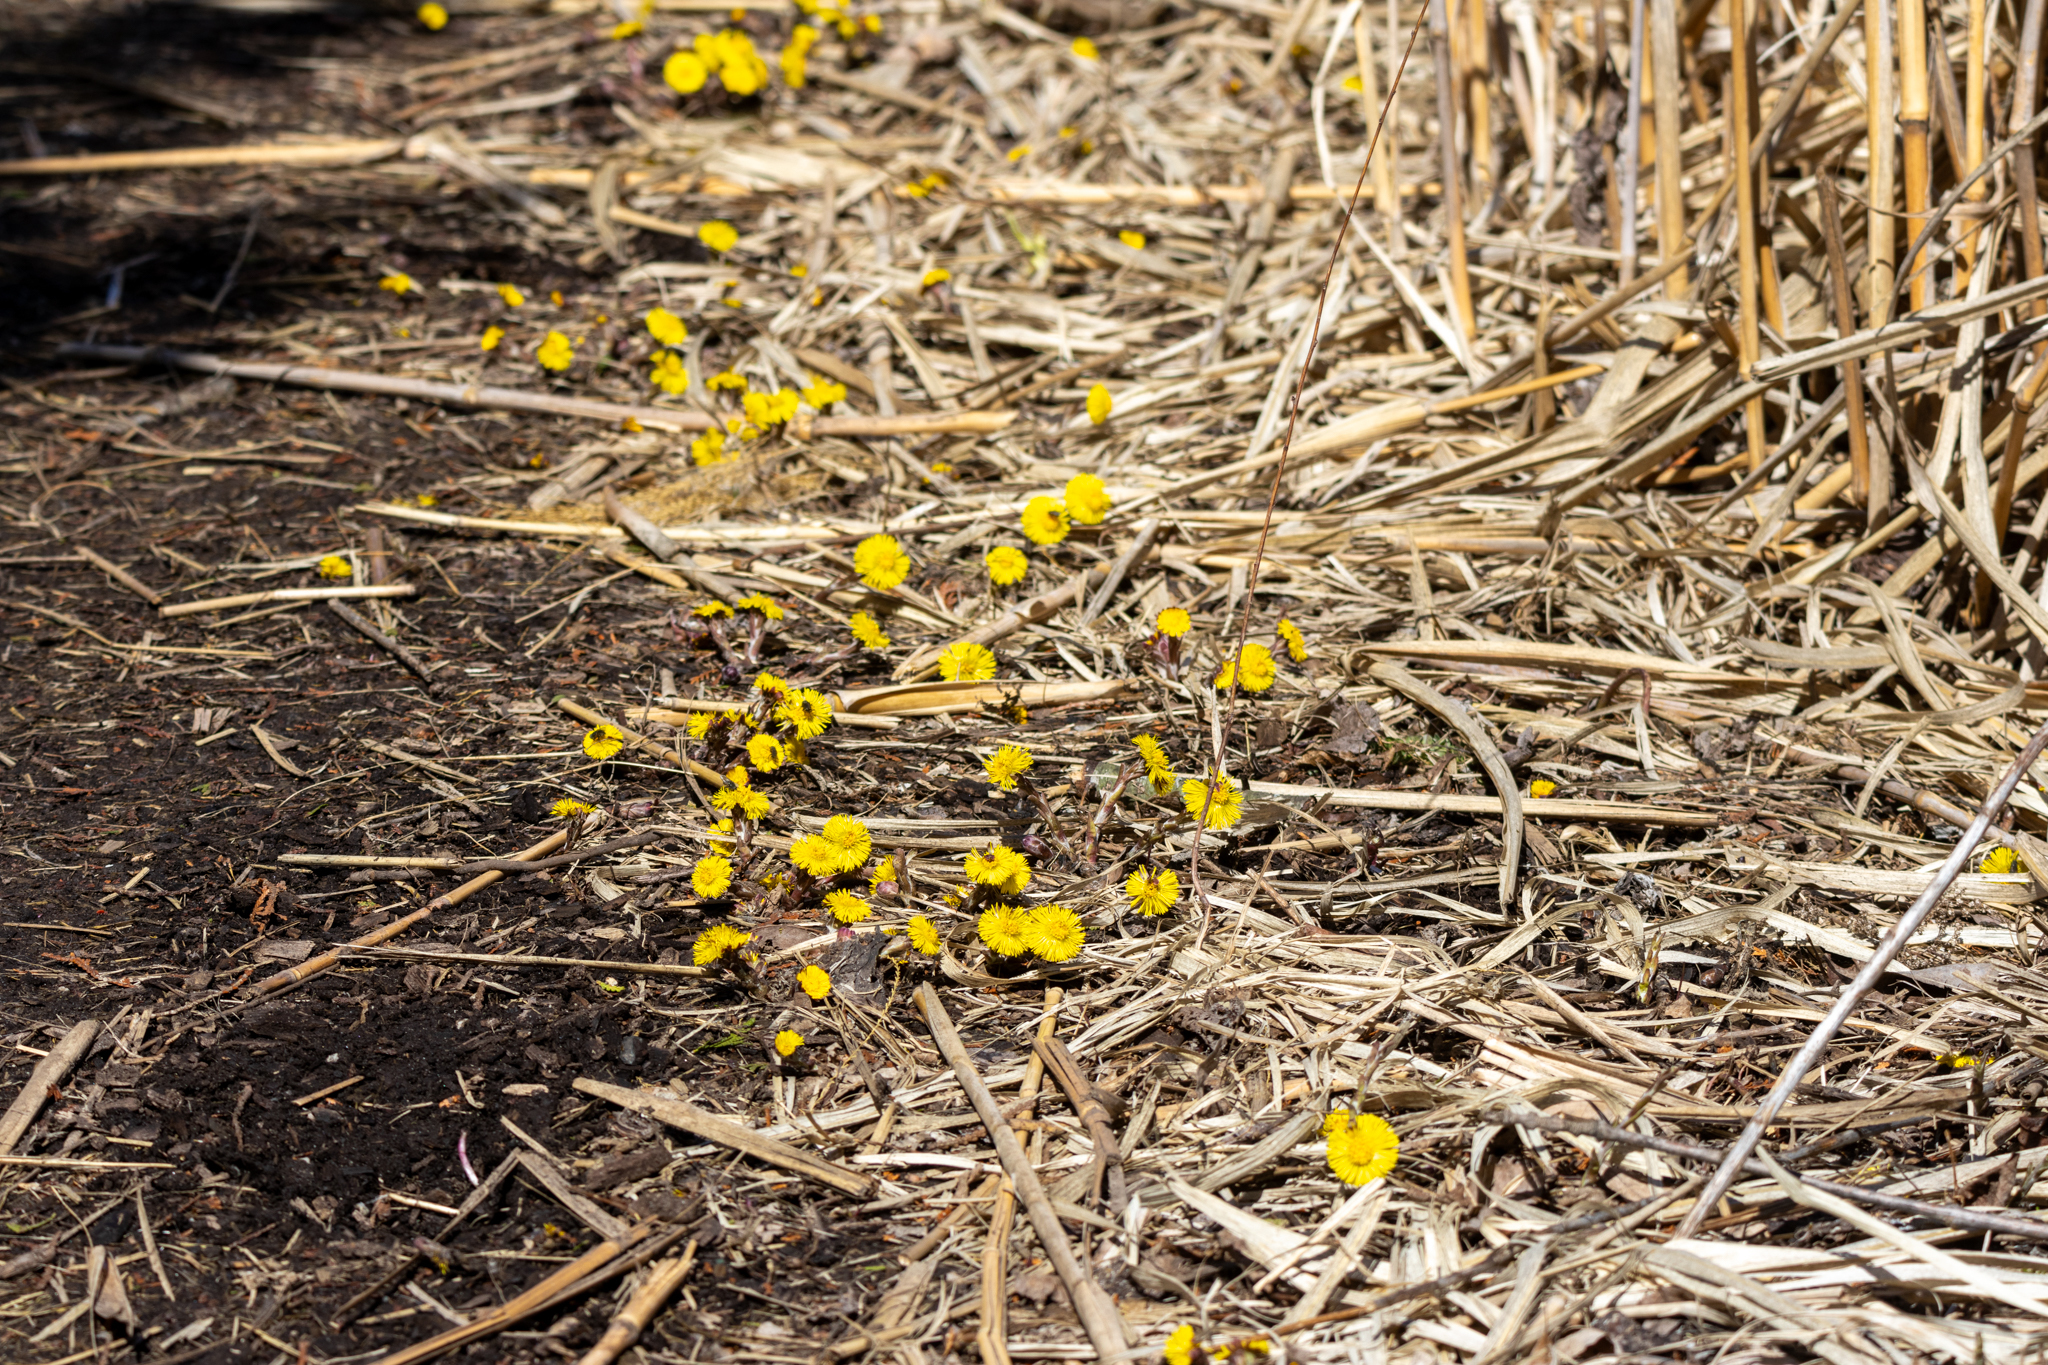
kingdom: Plantae
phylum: Tracheophyta
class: Magnoliopsida
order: Asterales
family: Asteraceae
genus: Tussilago
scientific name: Tussilago farfara
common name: Coltsfoot
